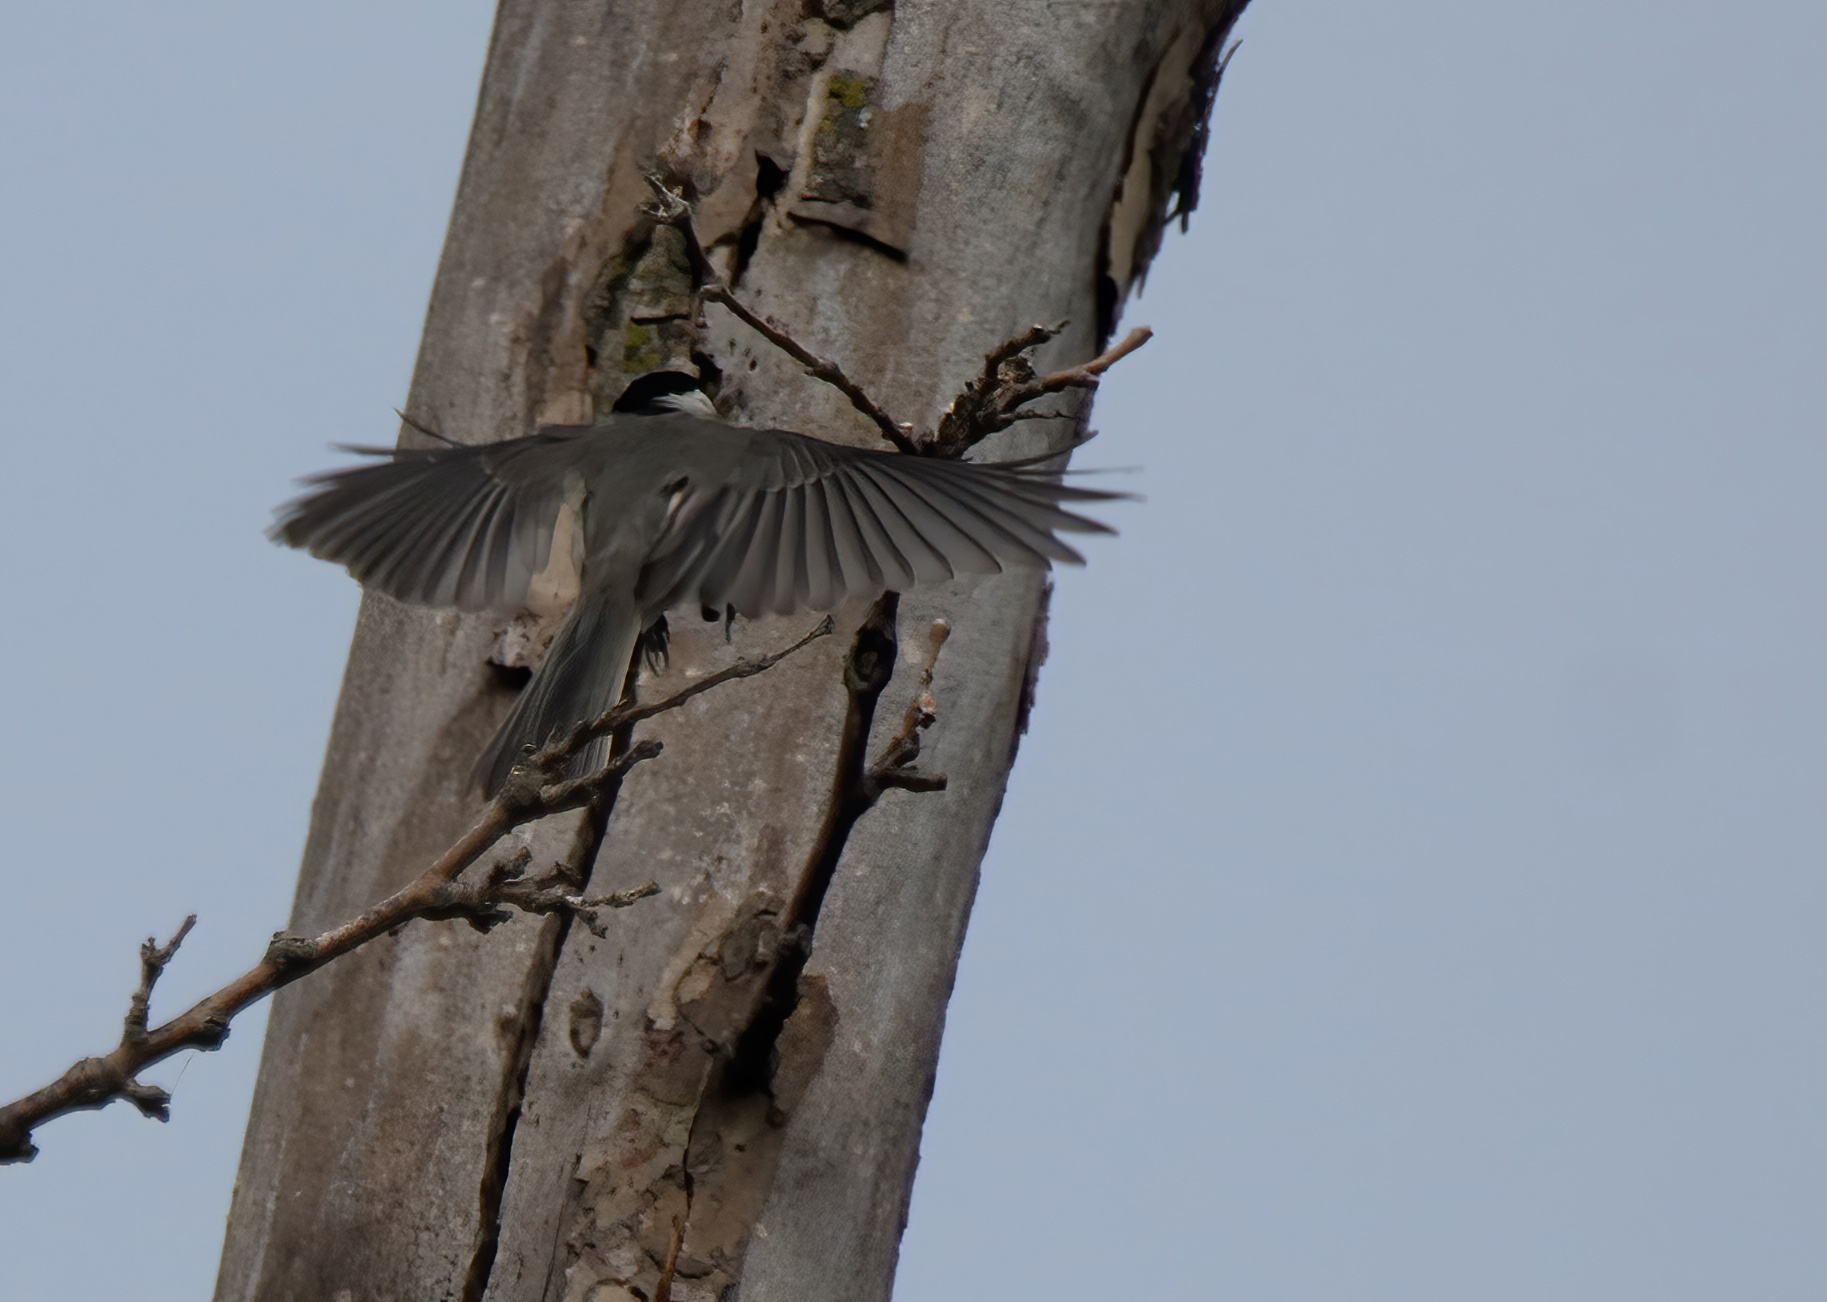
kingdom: Animalia
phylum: Chordata
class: Aves
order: Passeriformes
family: Paridae
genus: Poecile
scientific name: Poecile carolinensis
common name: Carolina chickadee
